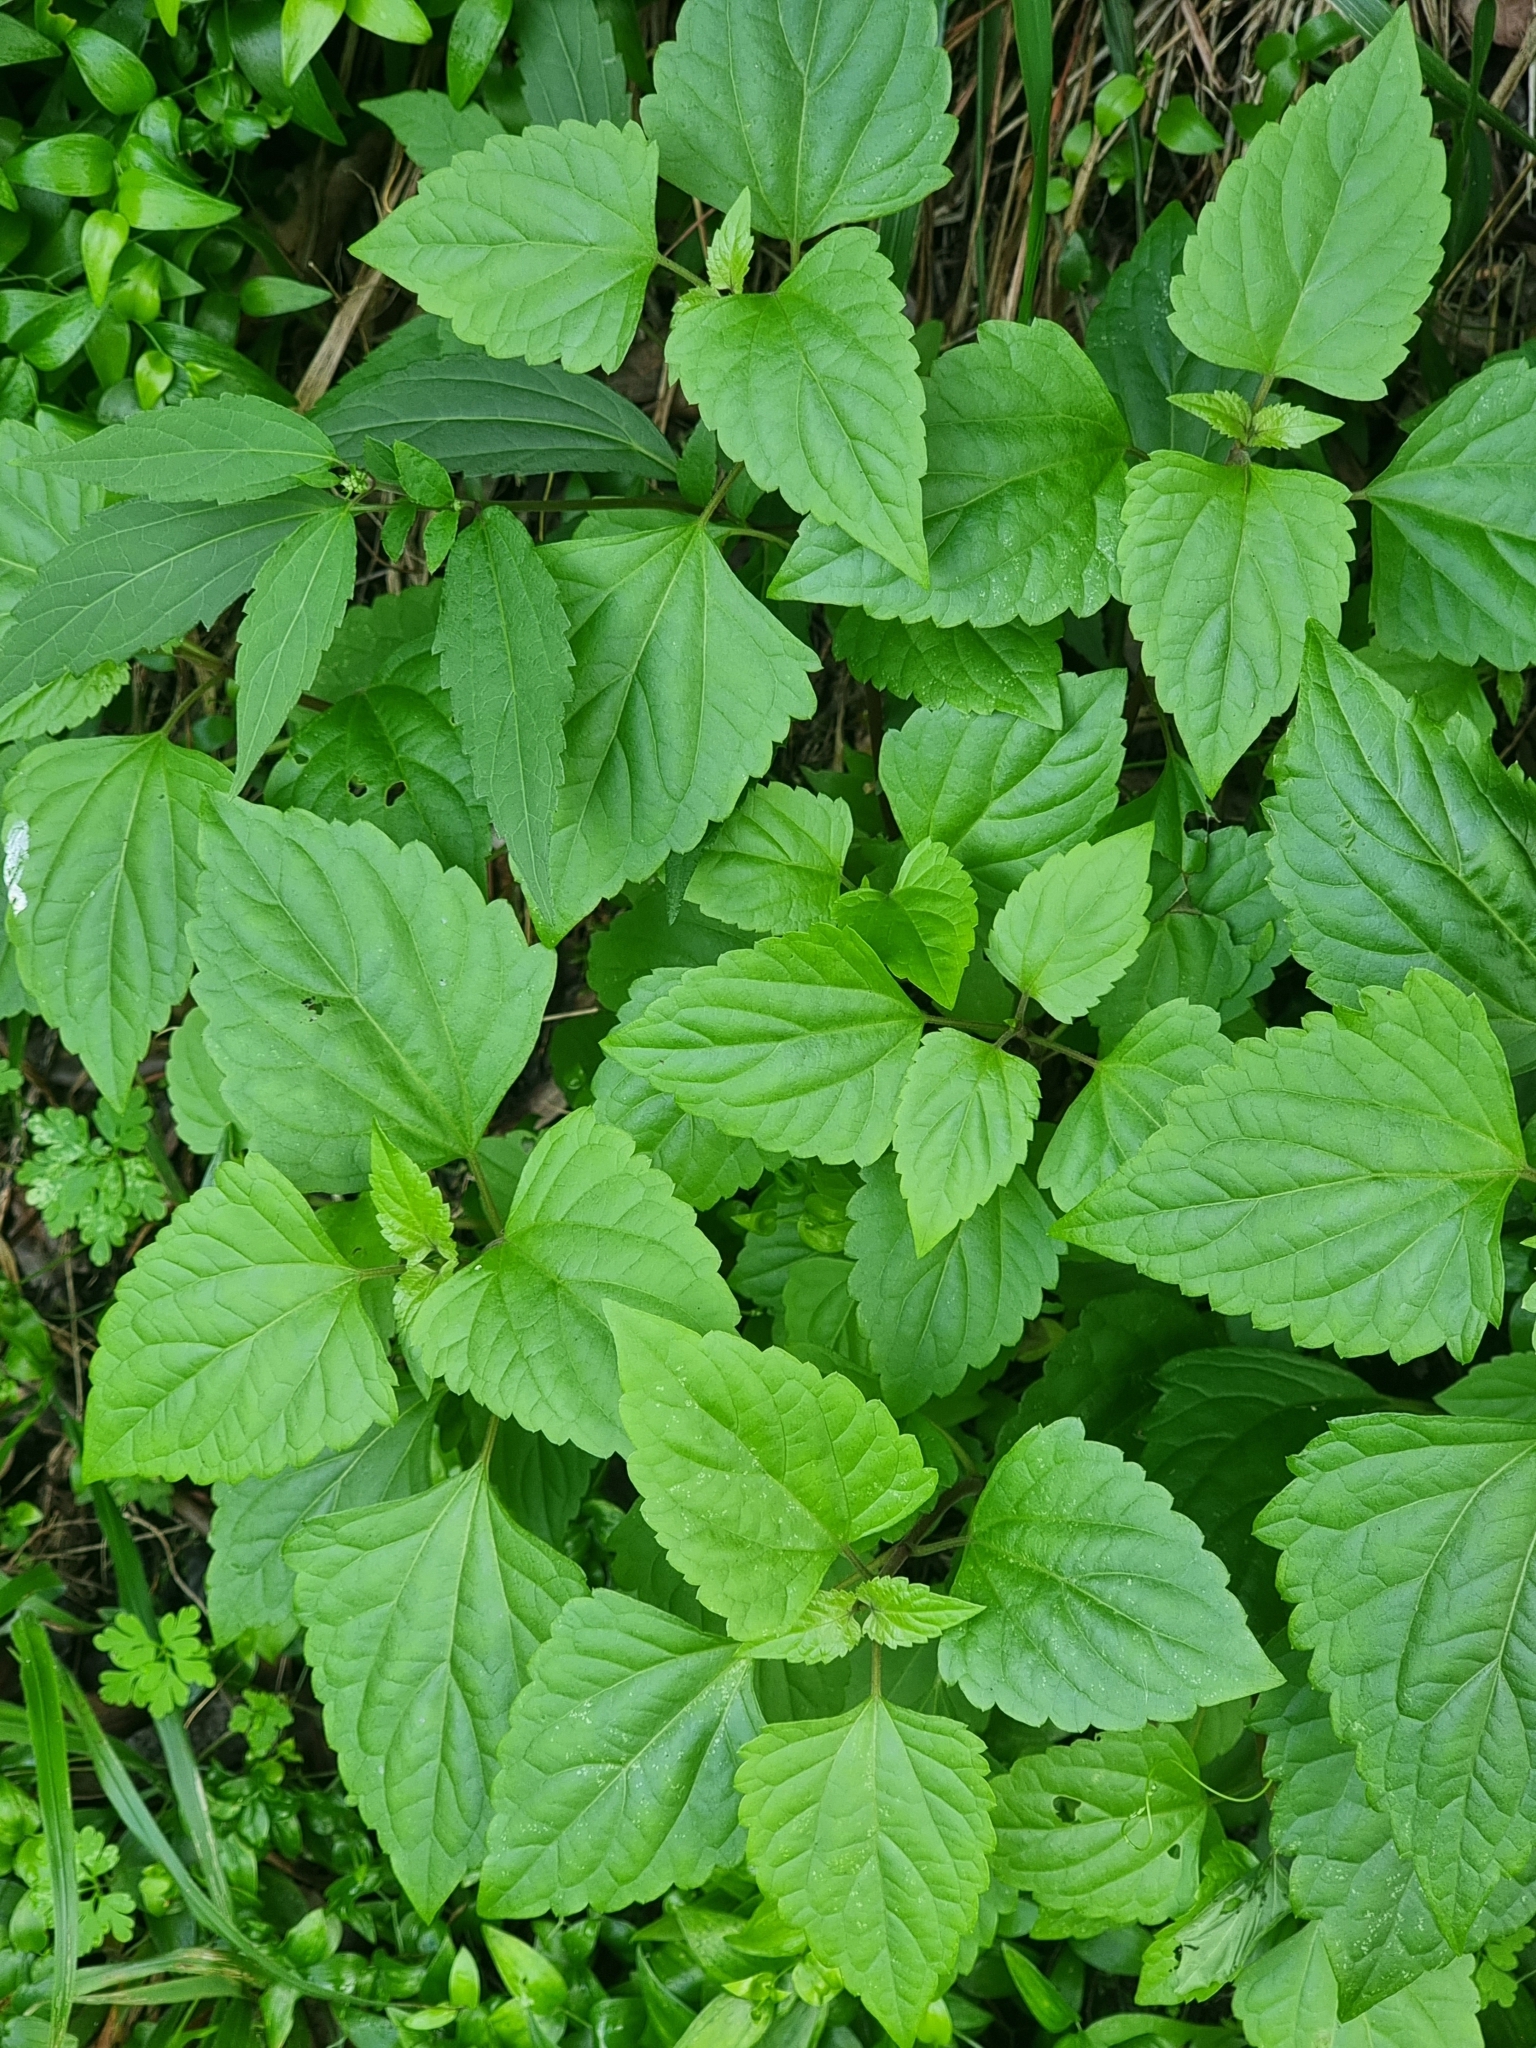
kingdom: Plantae
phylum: Tracheophyta
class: Magnoliopsida
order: Asterales
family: Asteraceae
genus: Ageratina
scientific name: Ageratina adenophora
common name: Sticky snakeroot
